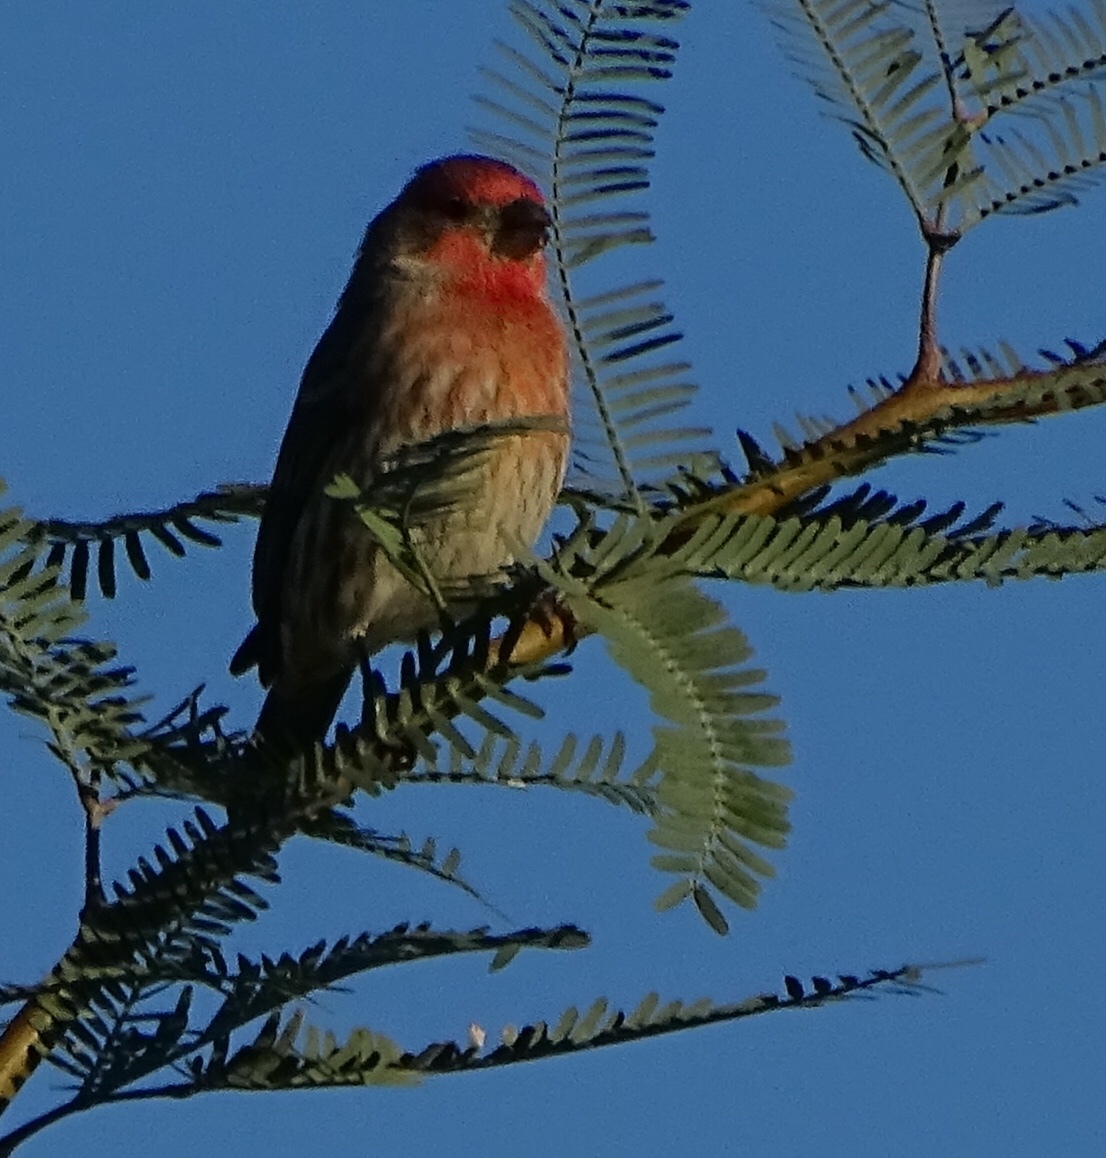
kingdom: Animalia
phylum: Chordata
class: Aves
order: Passeriformes
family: Fringillidae
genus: Haemorhous
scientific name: Haemorhous mexicanus
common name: House finch
